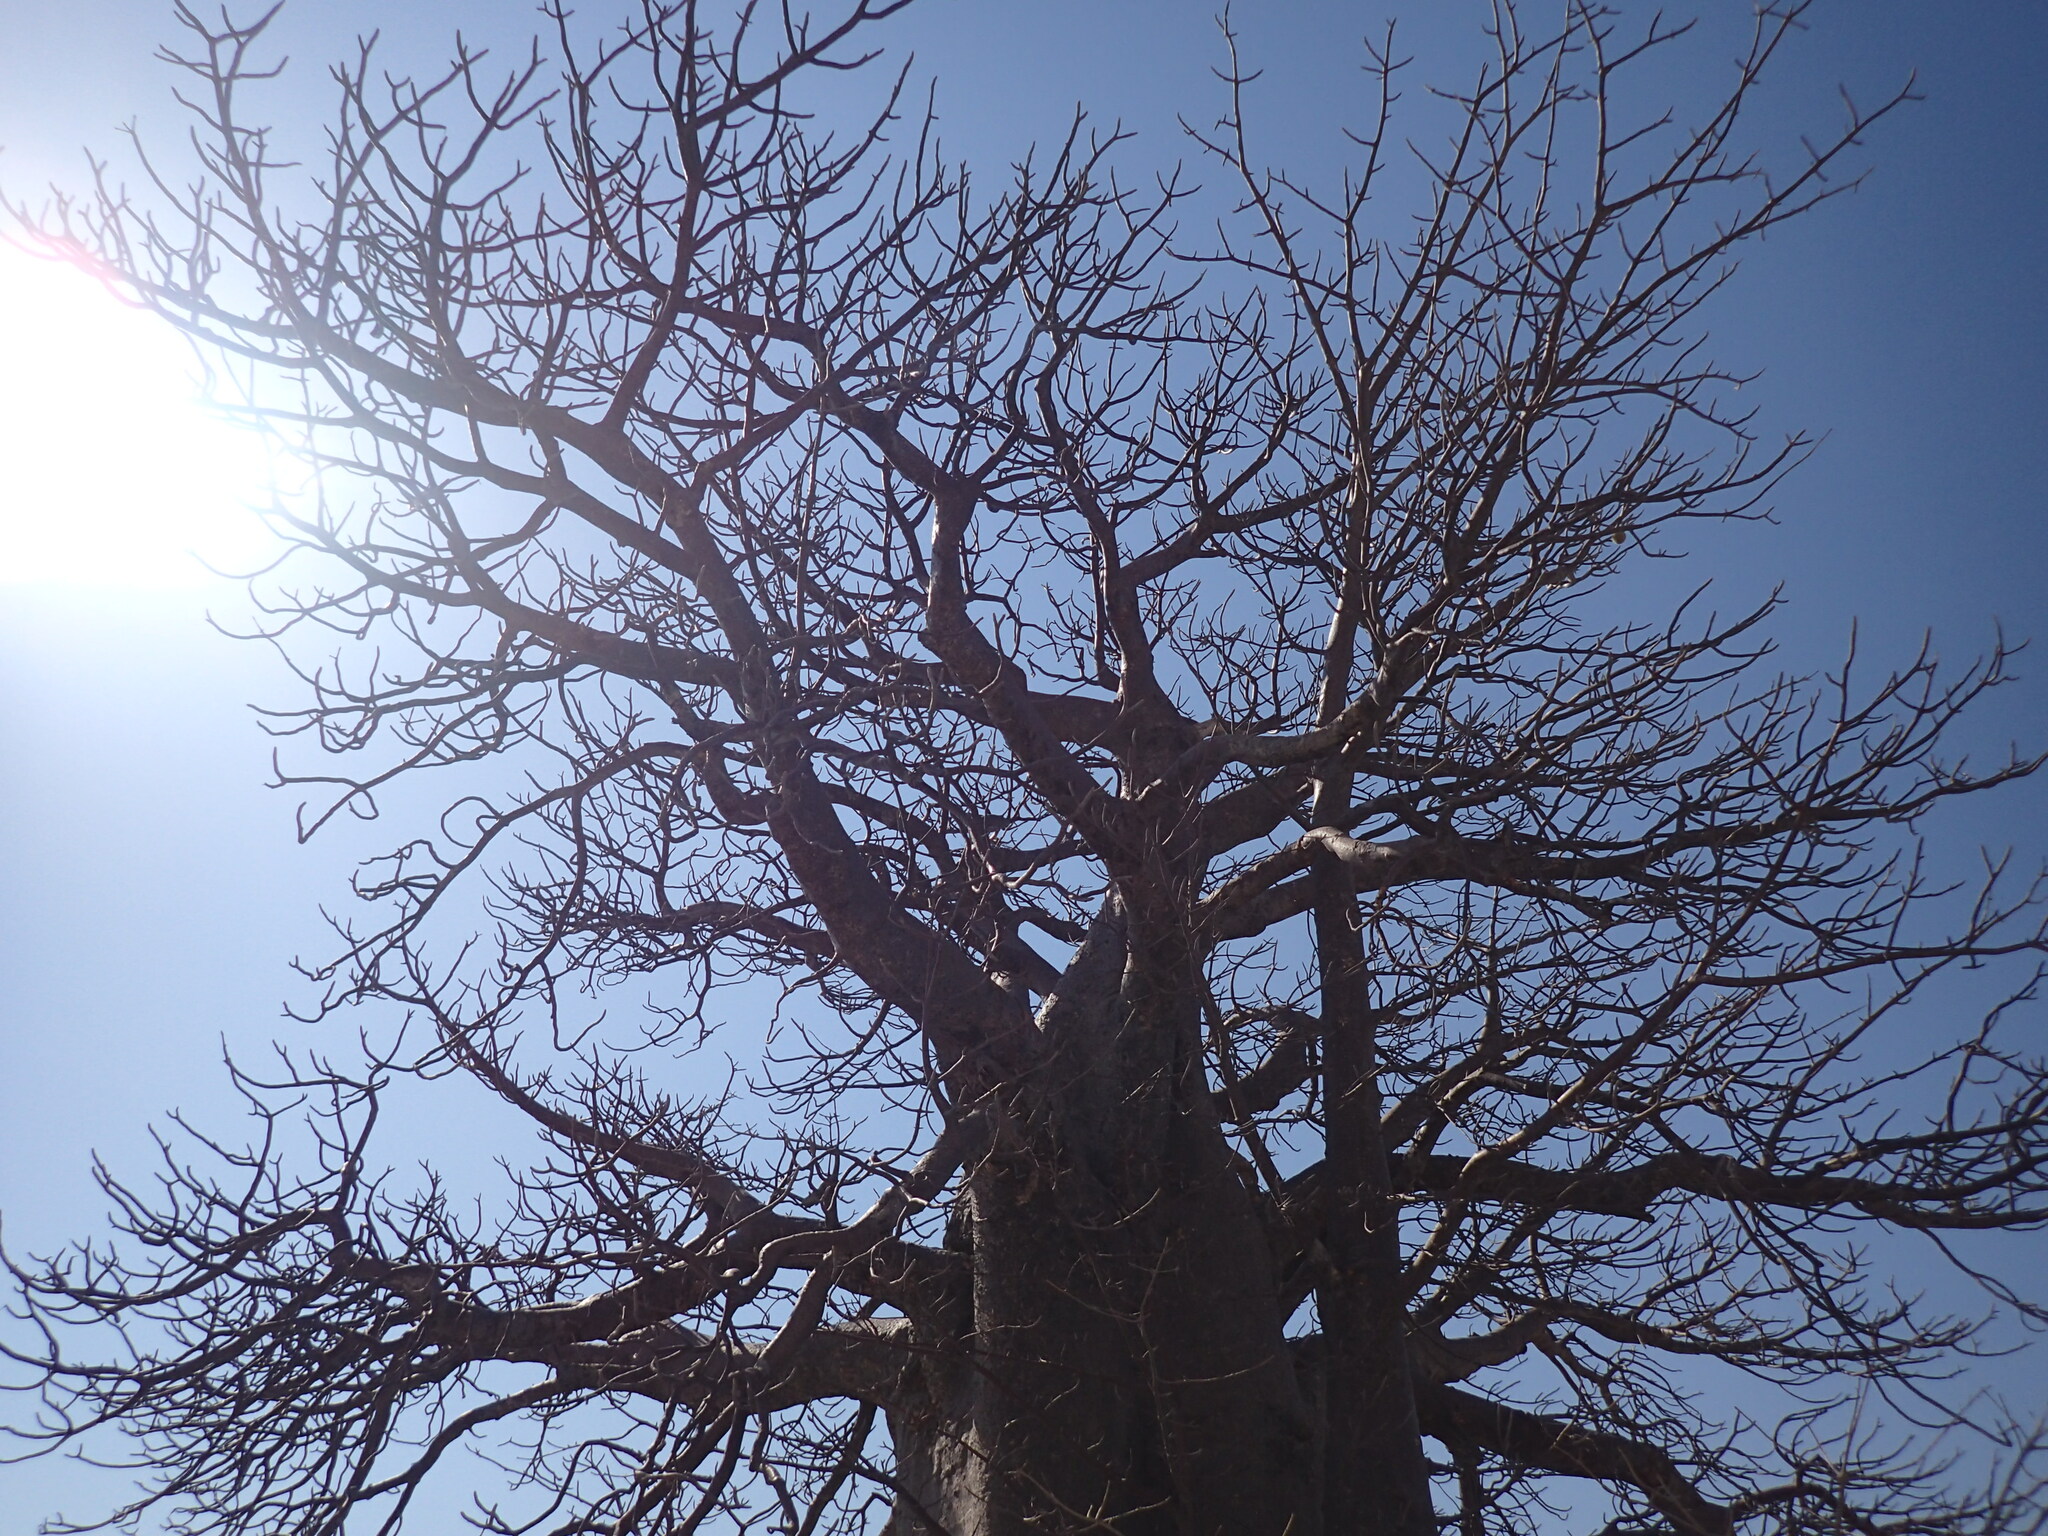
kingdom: Animalia
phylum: Arthropoda
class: Arachnida
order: Araneae
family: Eresidae
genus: Stegodyphus
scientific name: Stegodyphus dumicola
